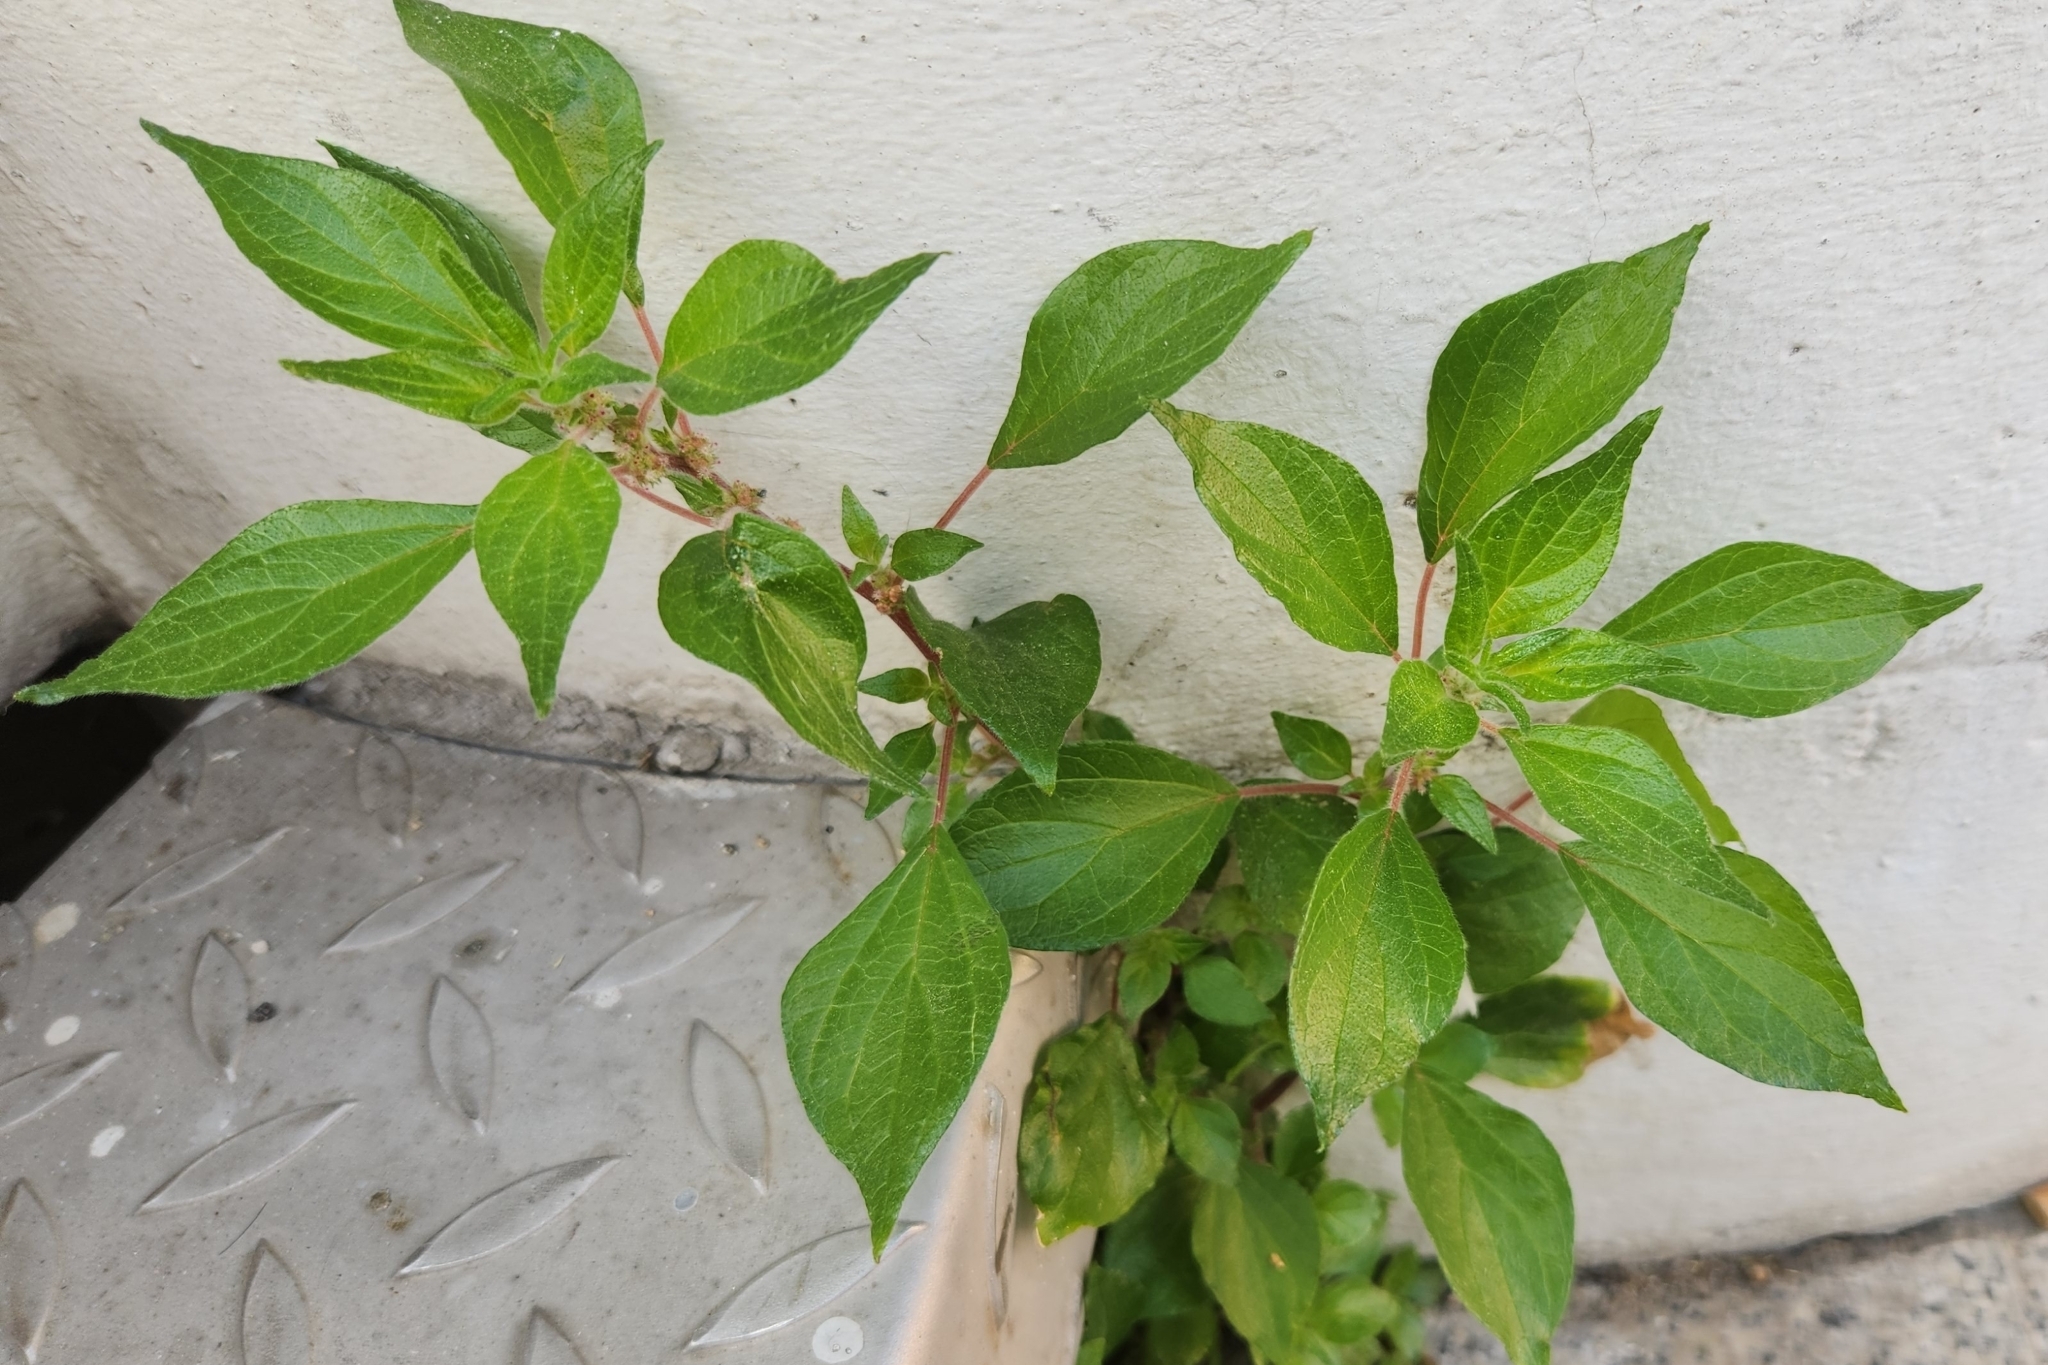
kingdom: Plantae
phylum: Tracheophyta
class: Magnoliopsida
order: Rosales
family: Urticaceae
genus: Parietaria
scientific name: Parietaria judaica
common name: Pellitory-of-the-wall
